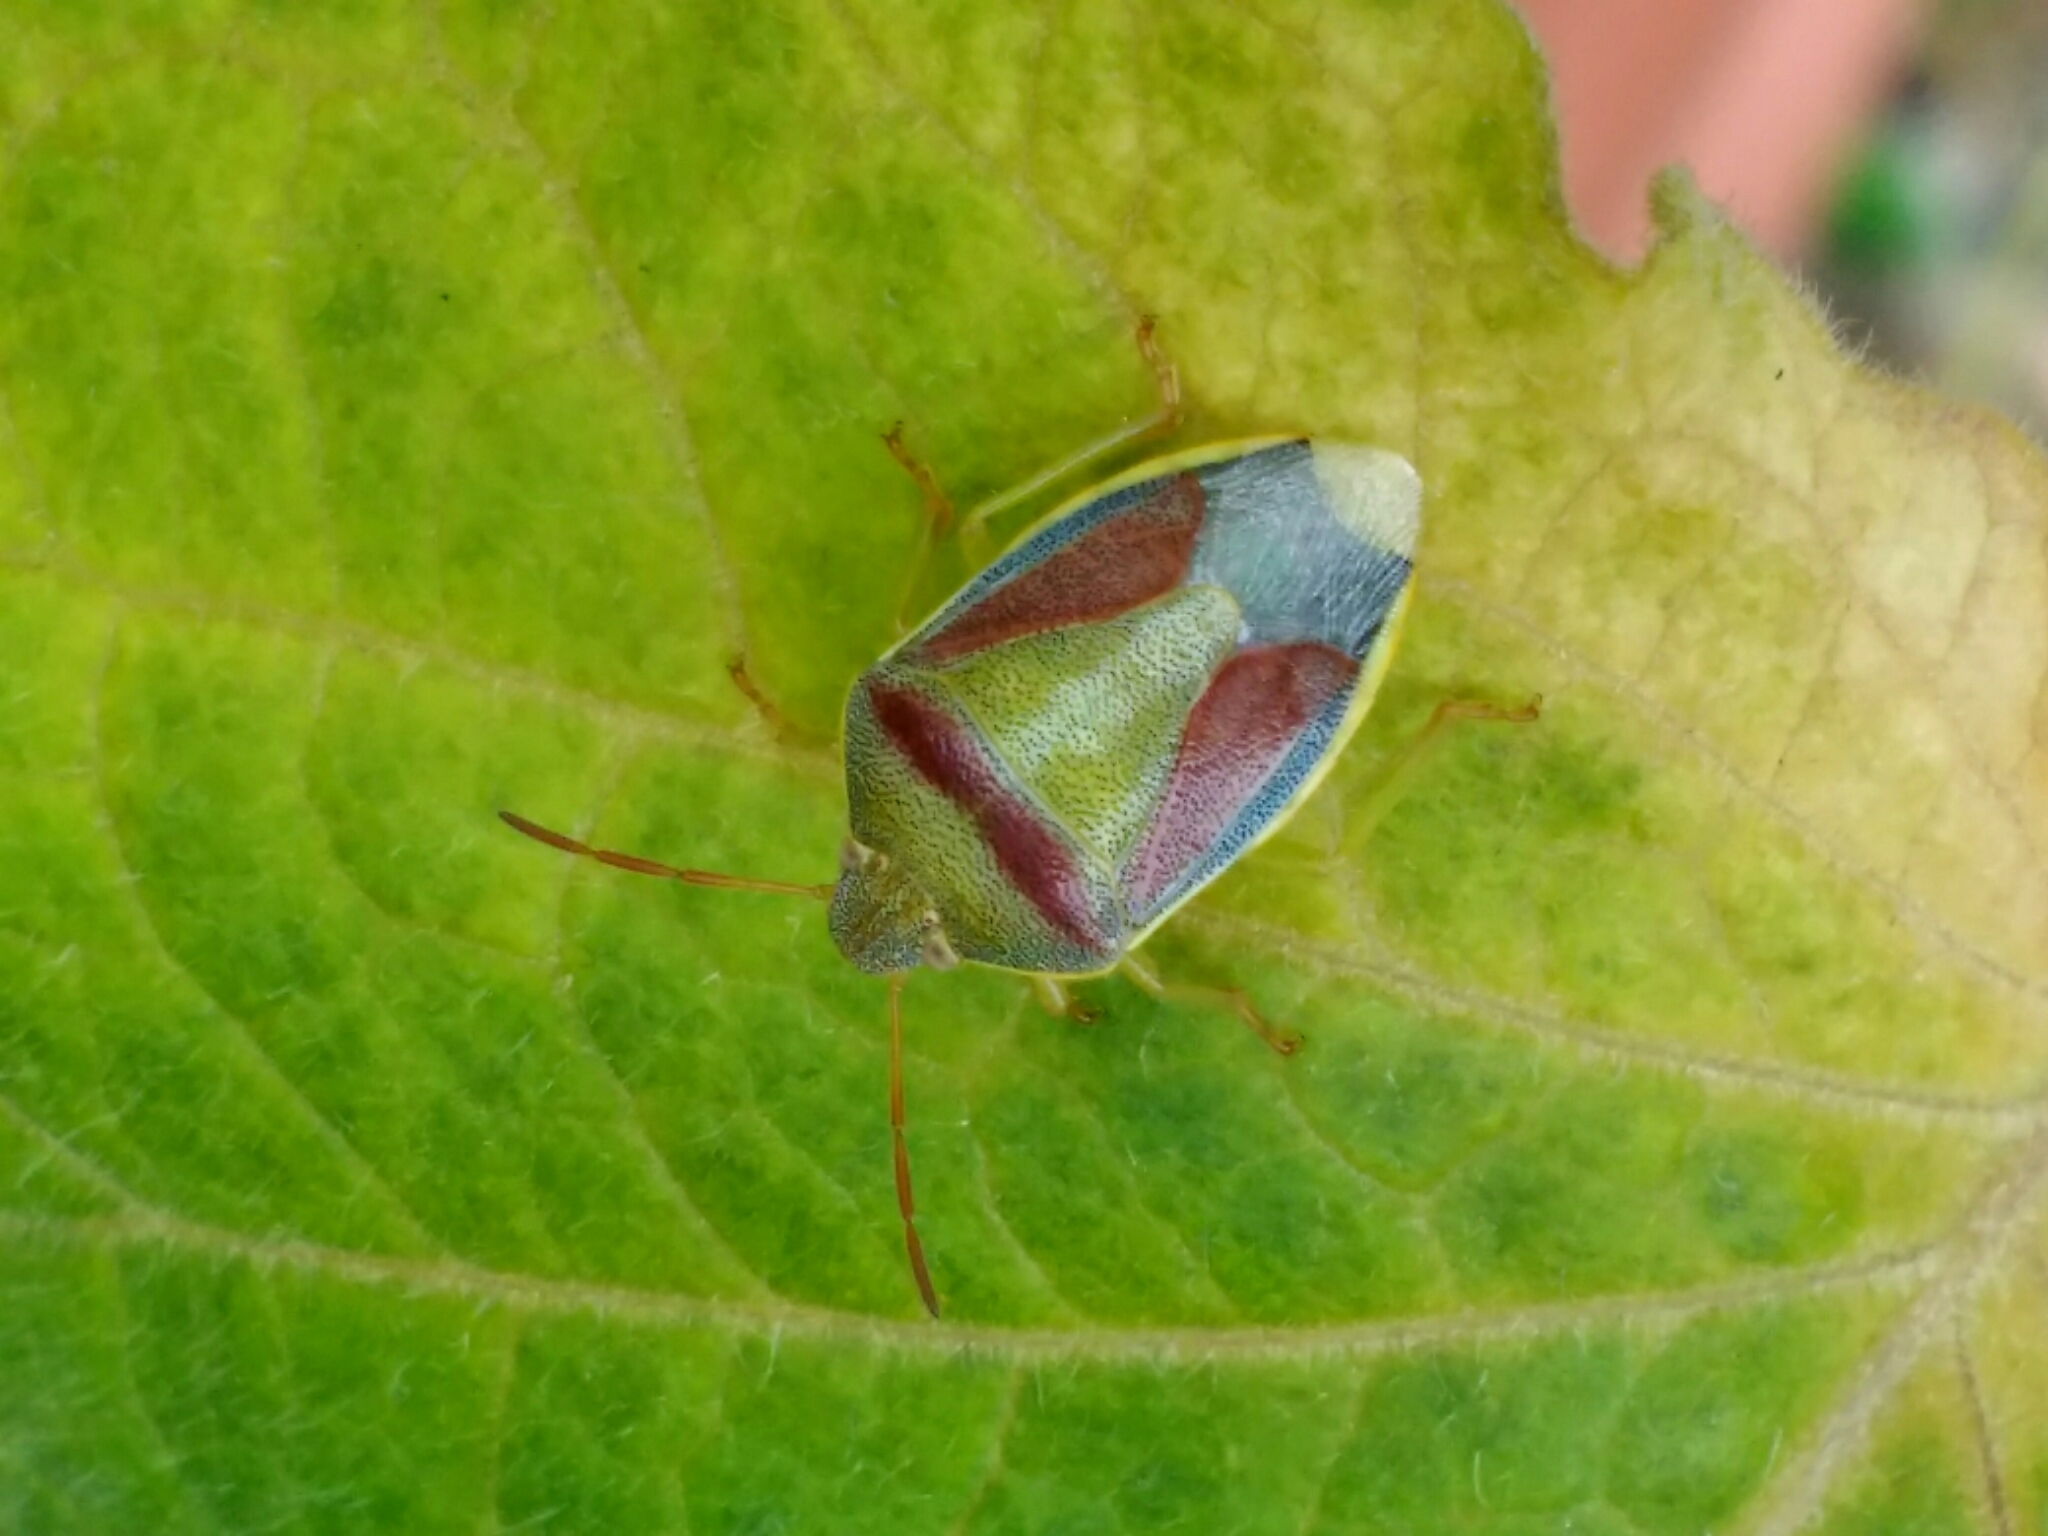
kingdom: Animalia
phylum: Arthropoda
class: Insecta
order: Hemiptera
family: Pentatomidae
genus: Piezodorus
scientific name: Piezodorus lituratus
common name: Stink bug
